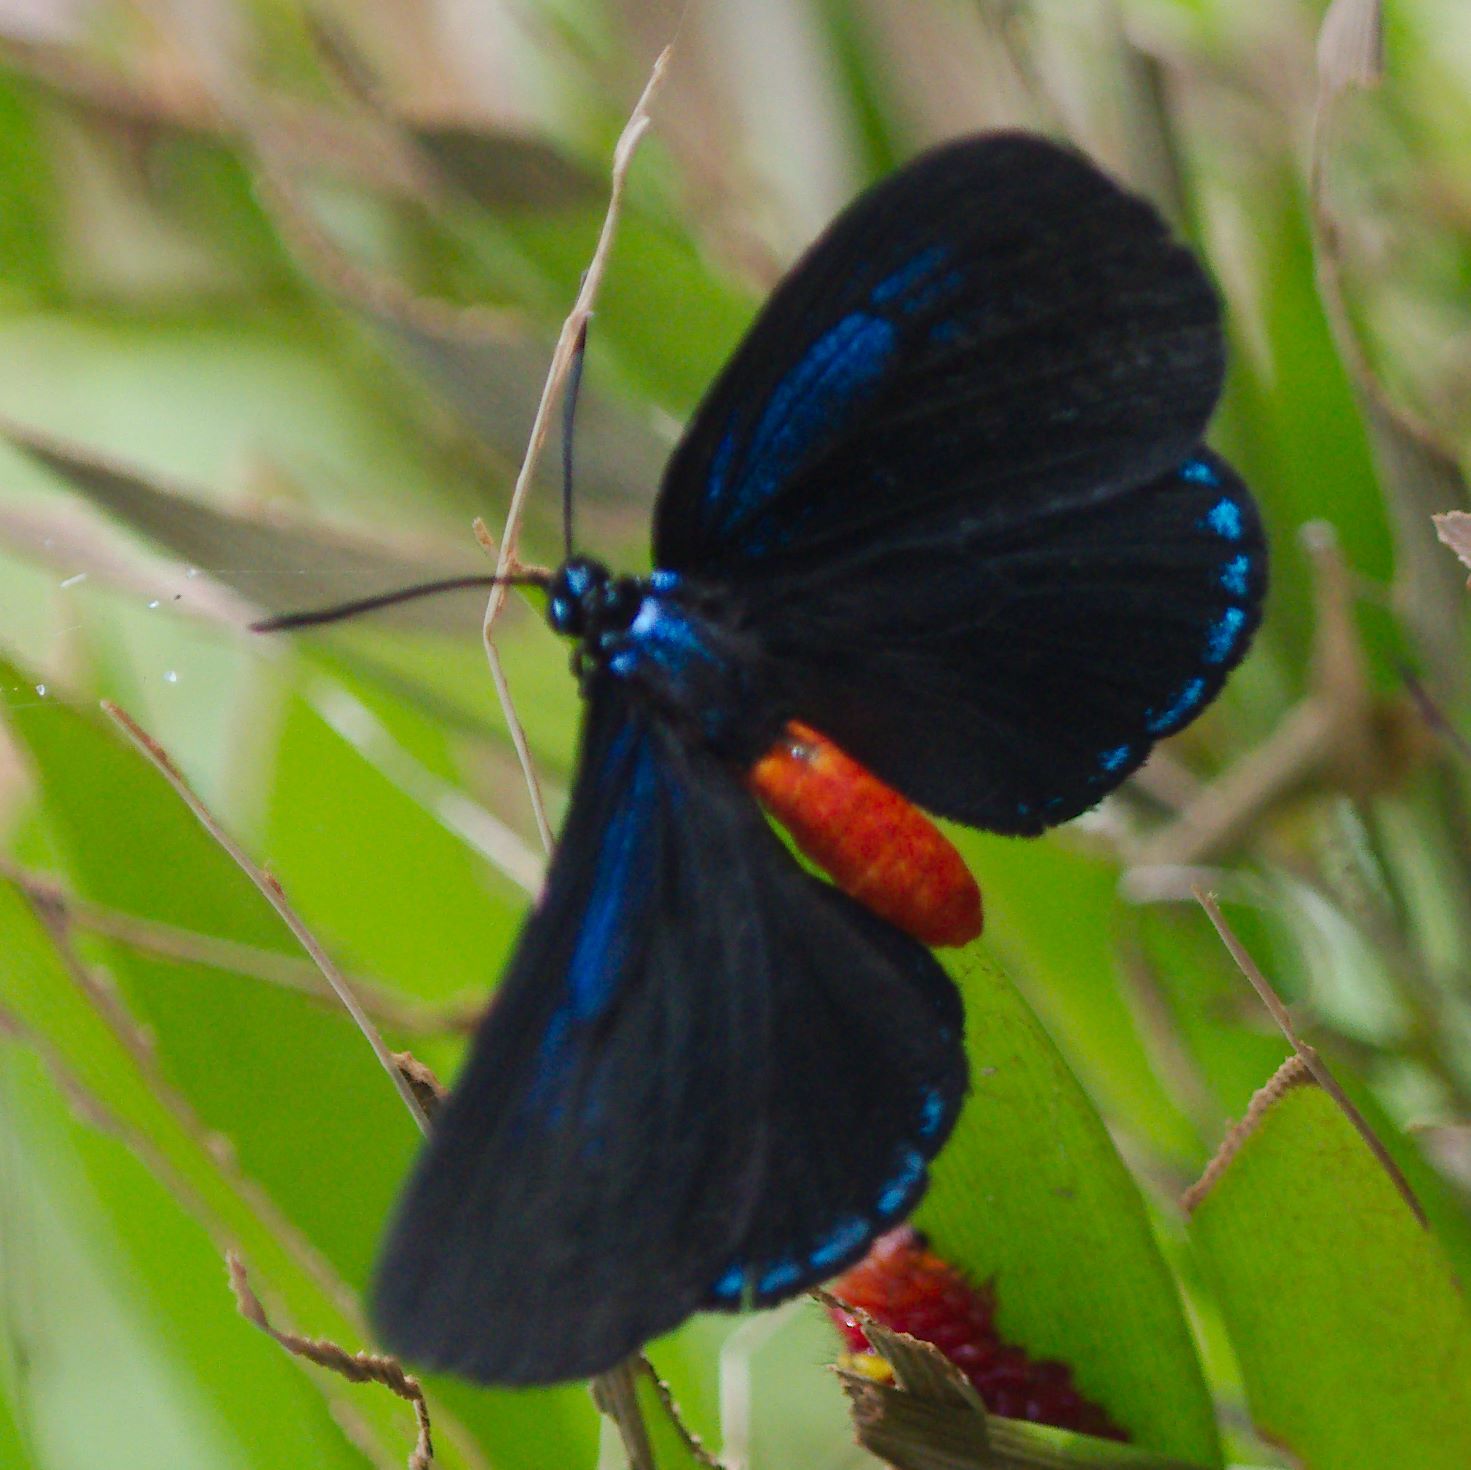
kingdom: Animalia
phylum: Arthropoda
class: Insecta
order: Lepidoptera
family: Lycaenidae
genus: Eumaeus
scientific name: Eumaeus atala
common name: Atala
